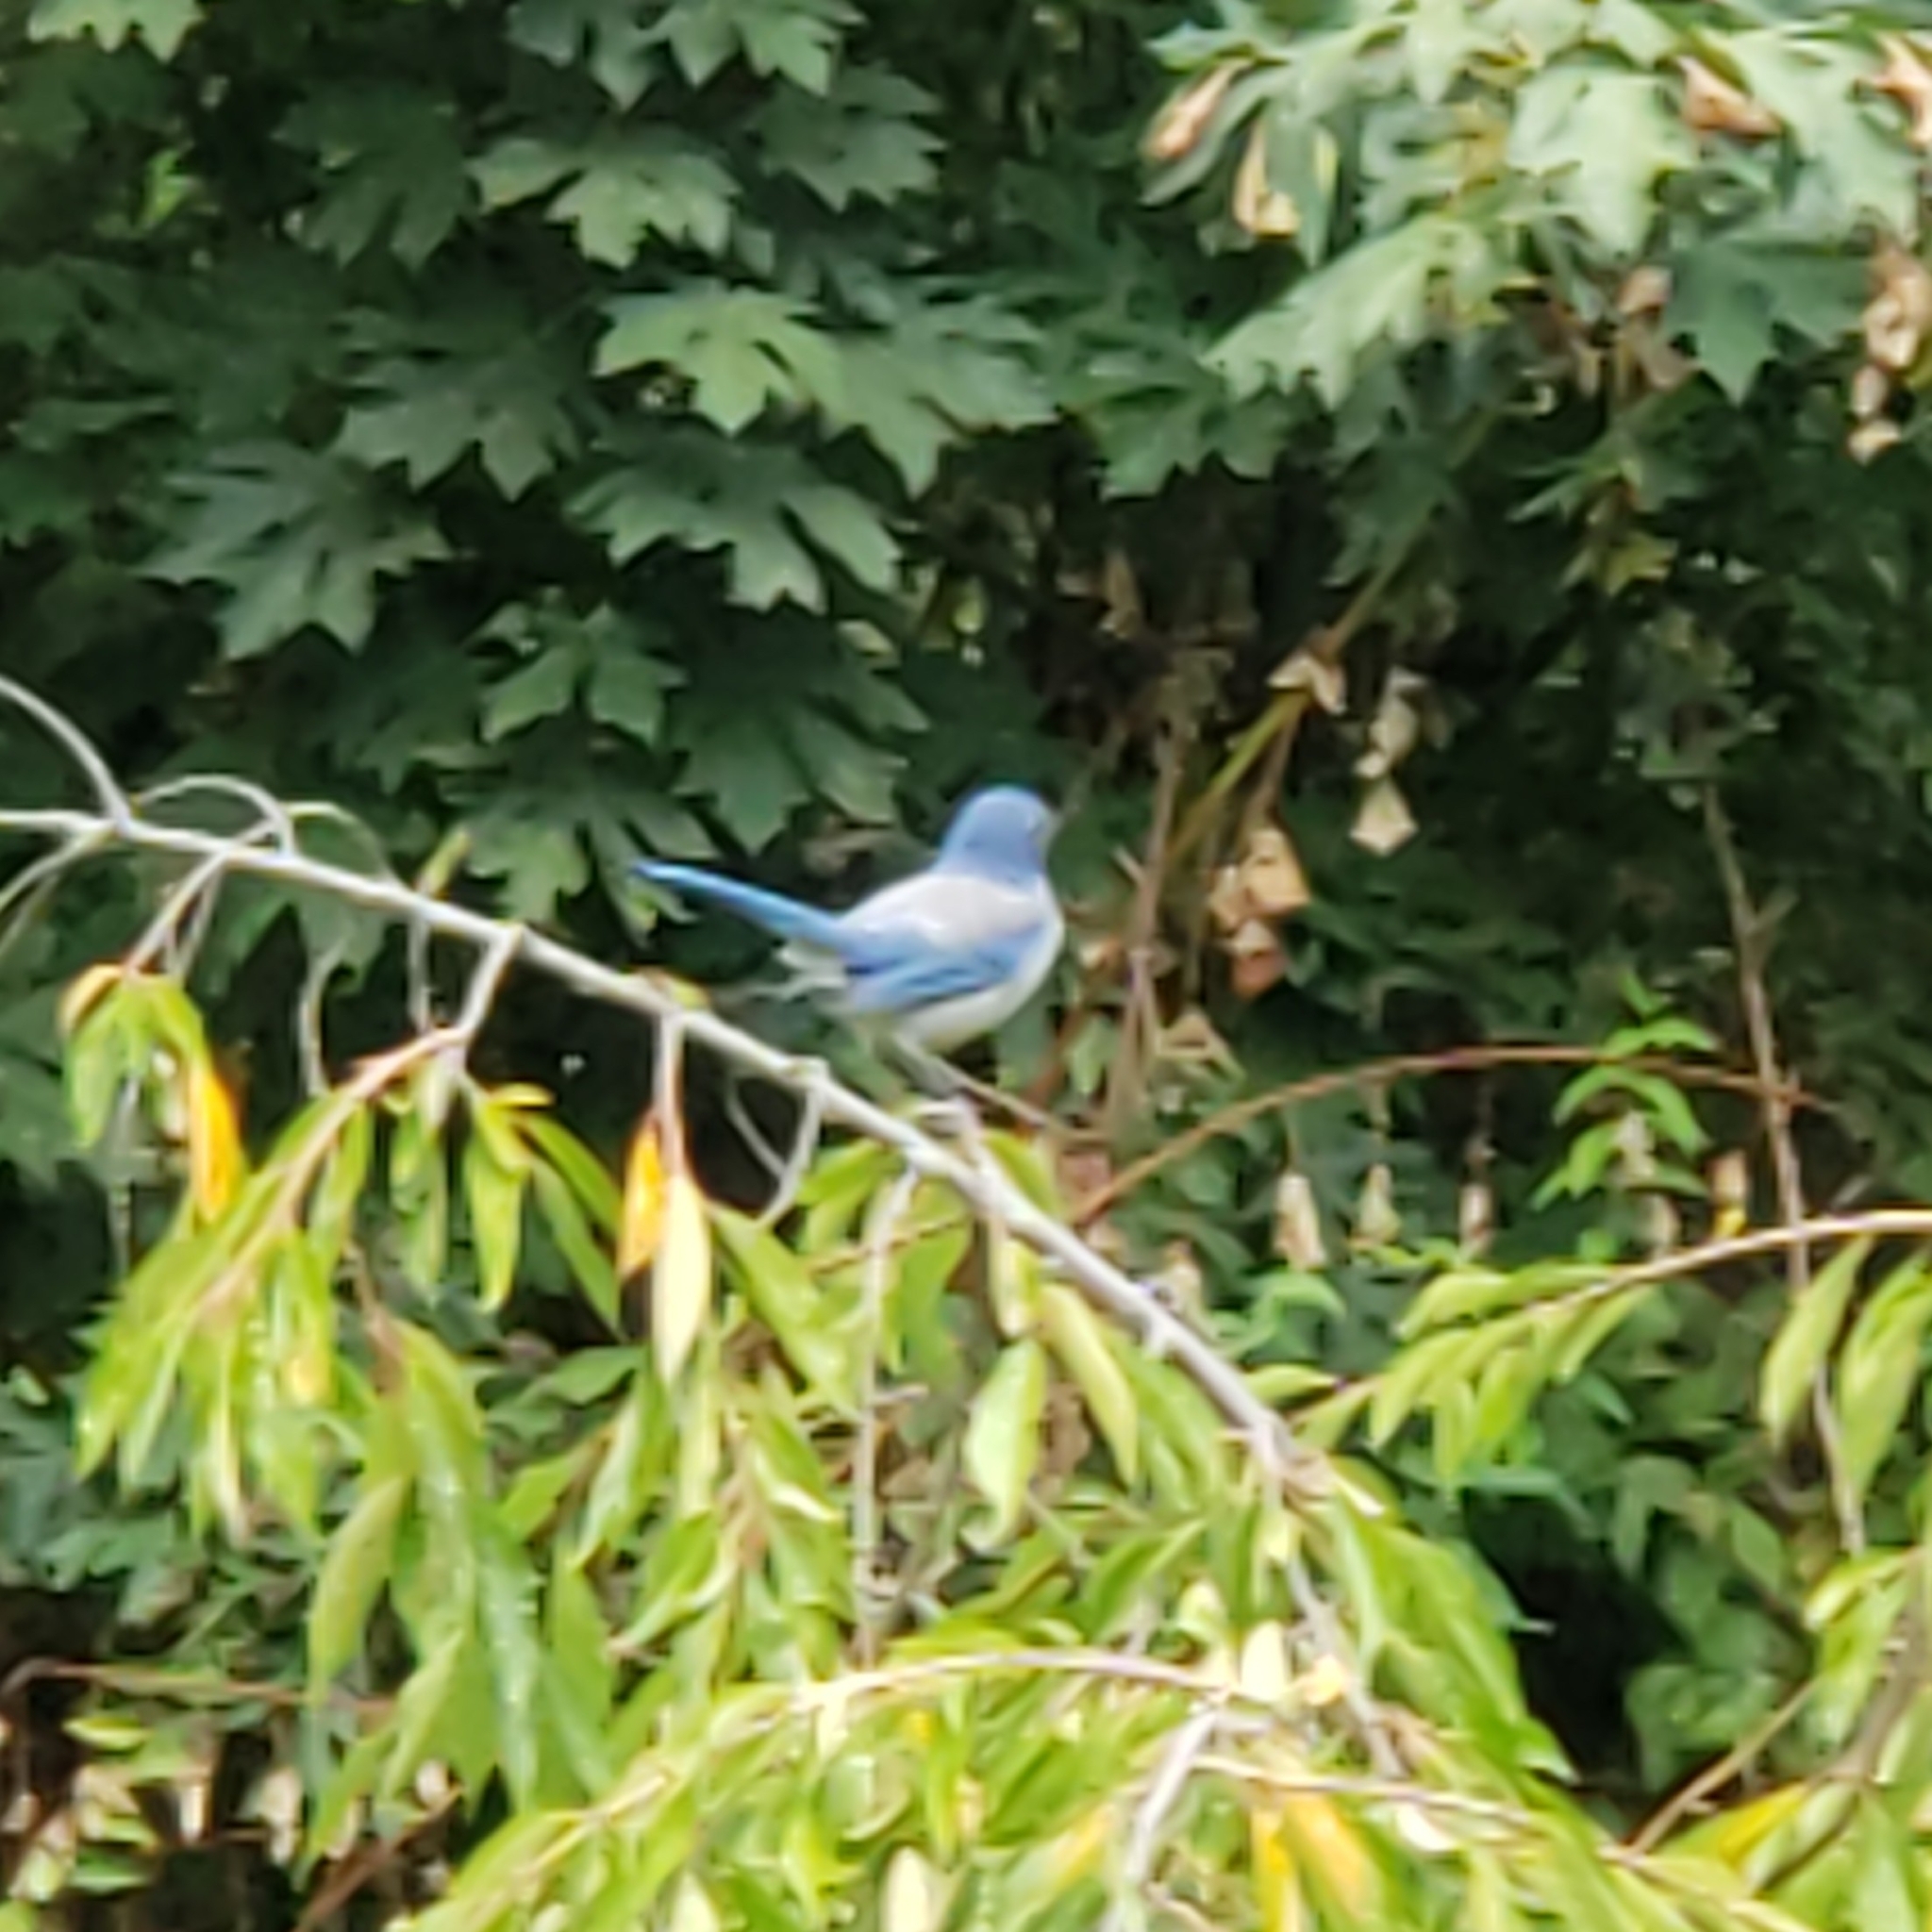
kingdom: Animalia
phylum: Chordata
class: Aves
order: Passeriformes
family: Corvidae
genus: Aphelocoma
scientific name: Aphelocoma californica
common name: California scrub-jay
